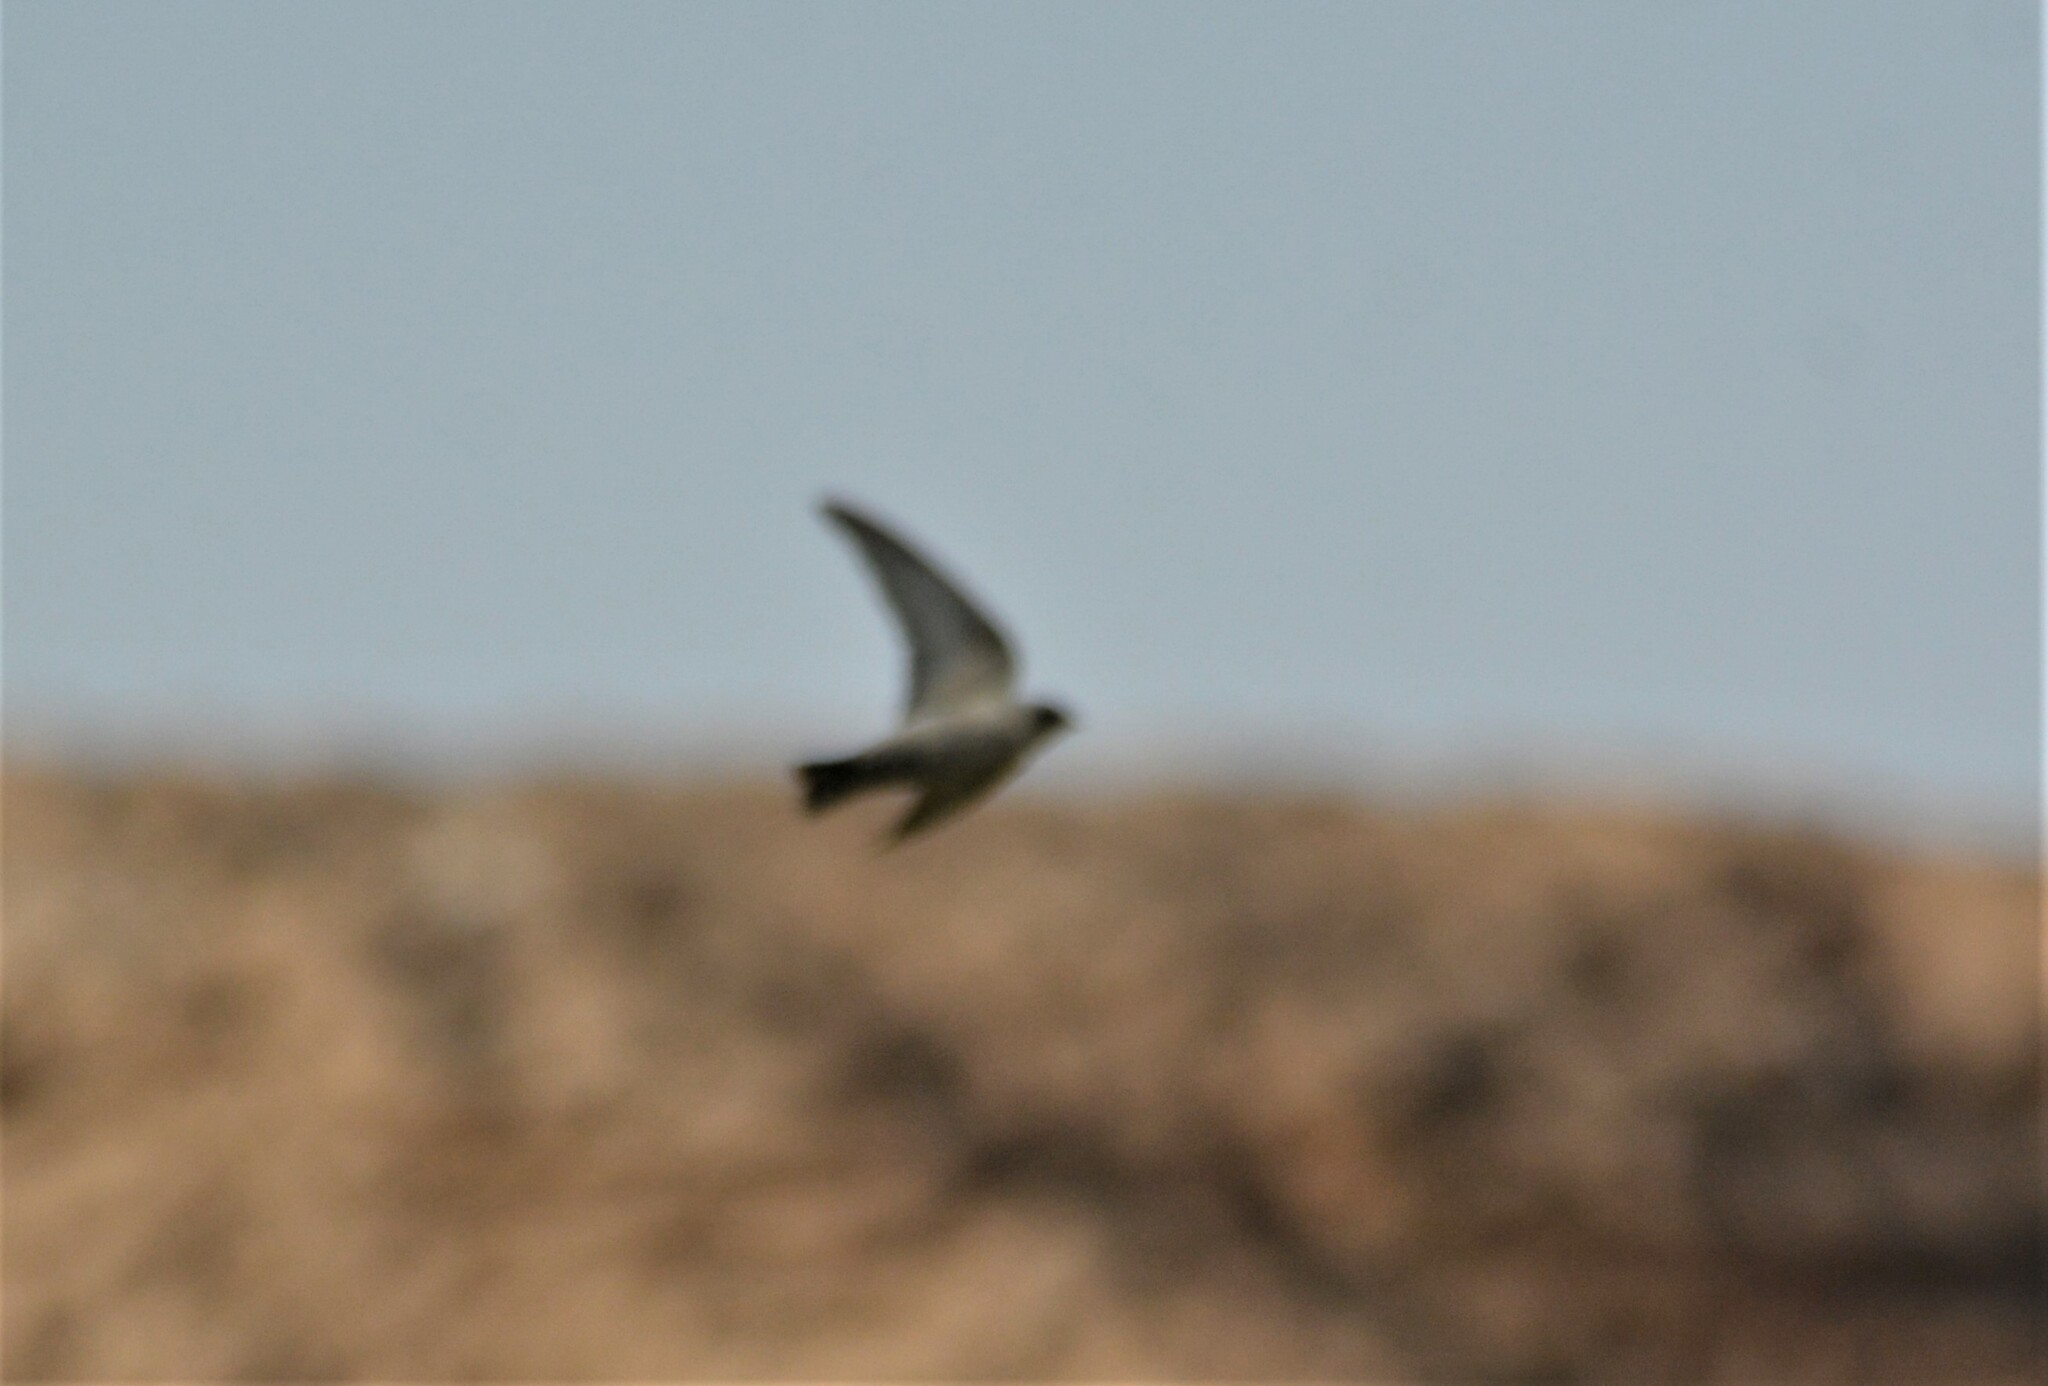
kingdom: Animalia
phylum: Chordata
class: Aves
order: Passeriformes
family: Hirundinidae
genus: Ptyonoprogne
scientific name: Ptyonoprogne fuligula
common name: Rock martin
